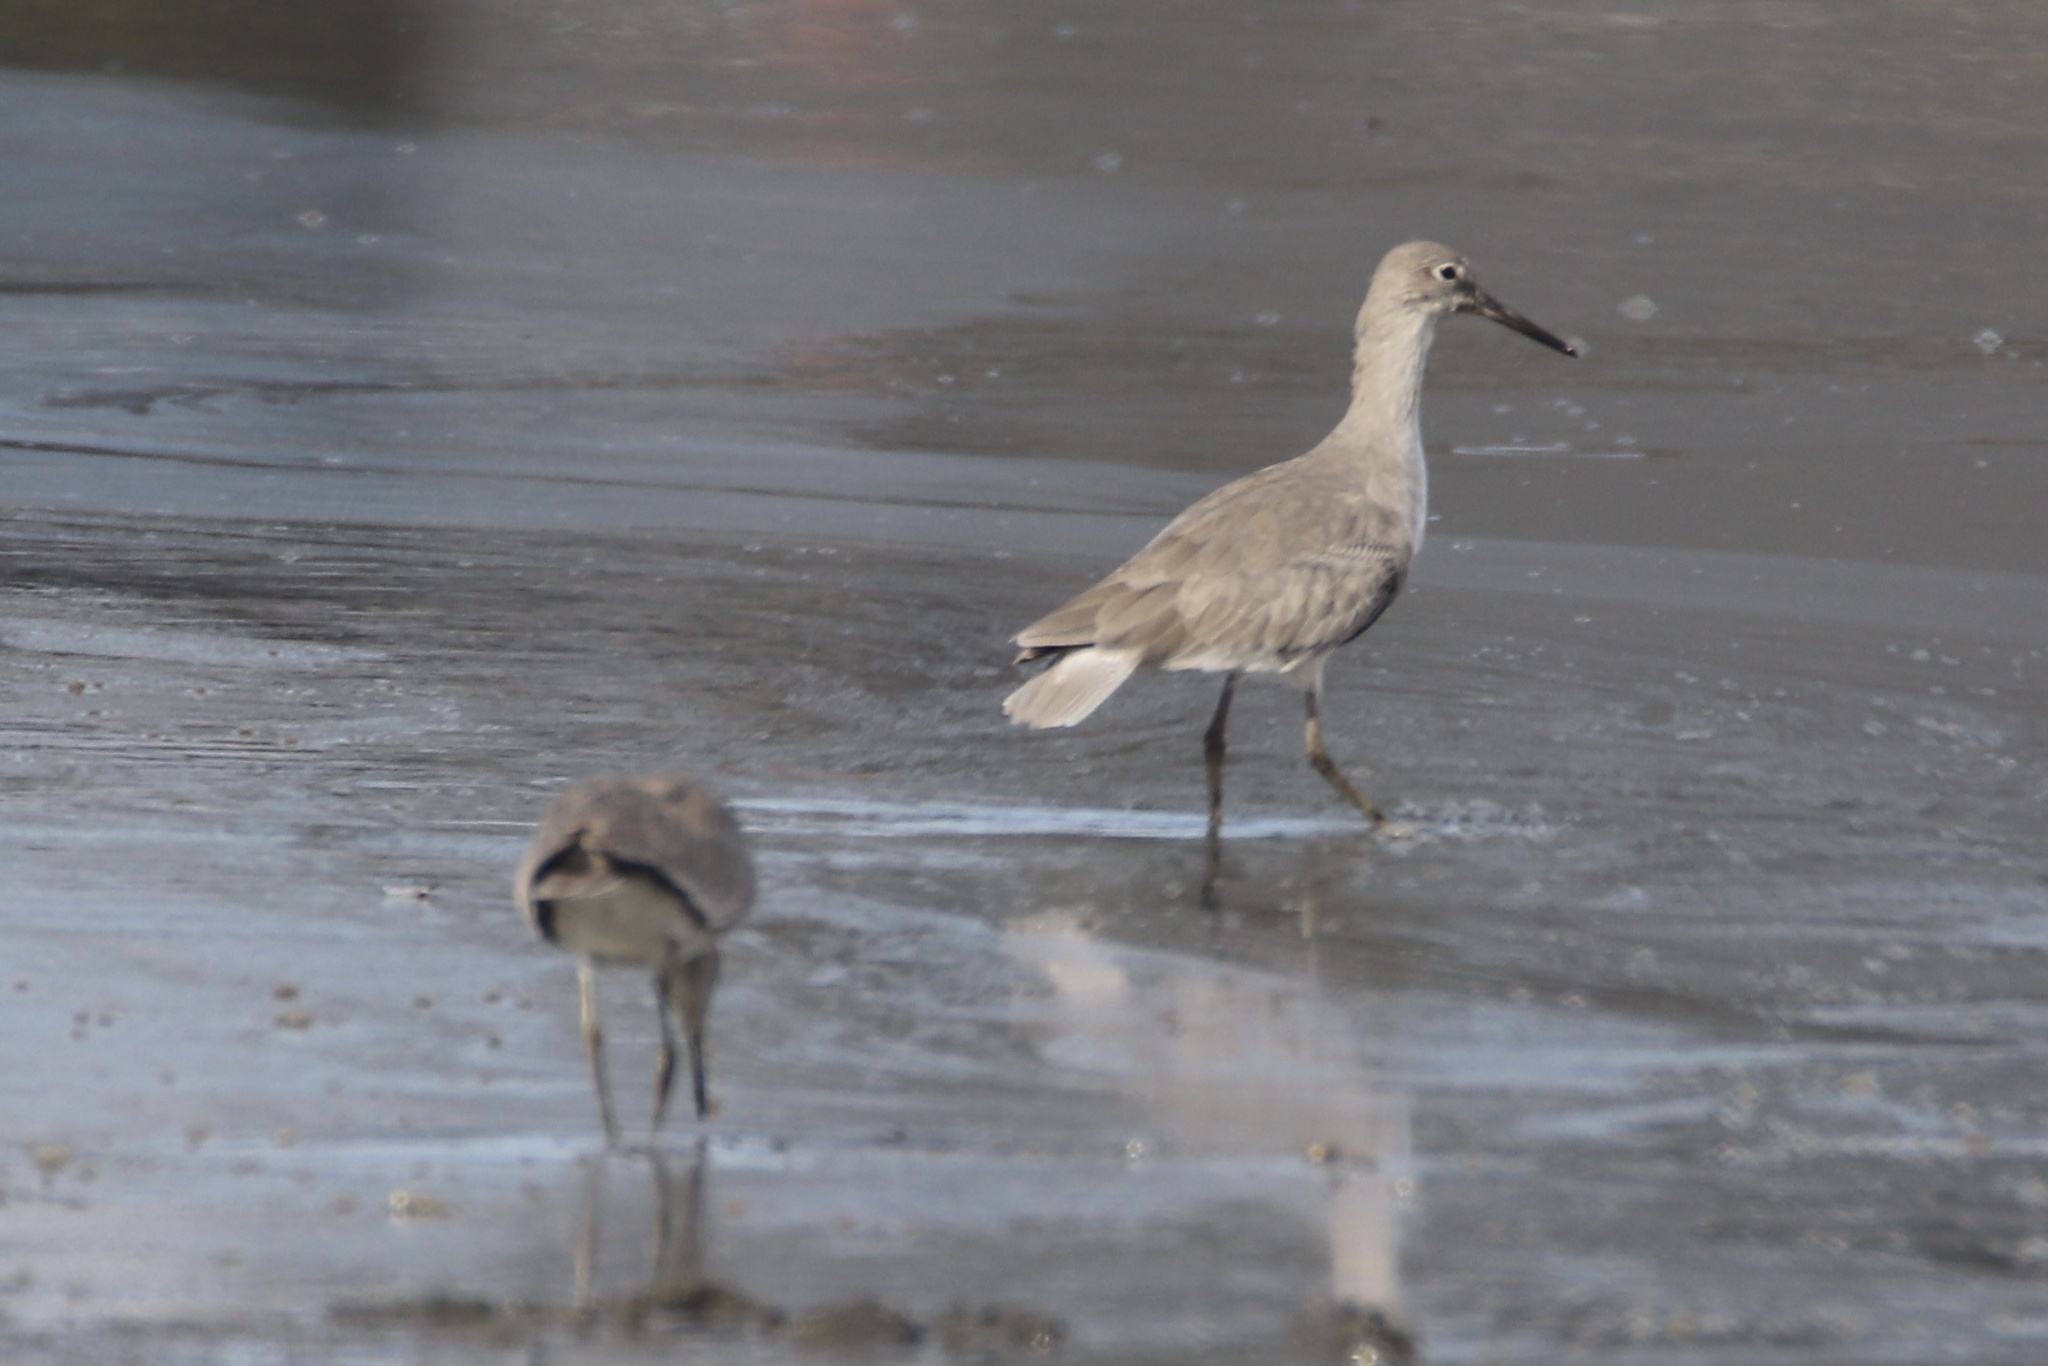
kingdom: Animalia
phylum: Chordata
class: Aves
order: Charadriiformes
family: Scolopacidae
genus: Tringa
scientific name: Tringa semipalmata
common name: Willet
